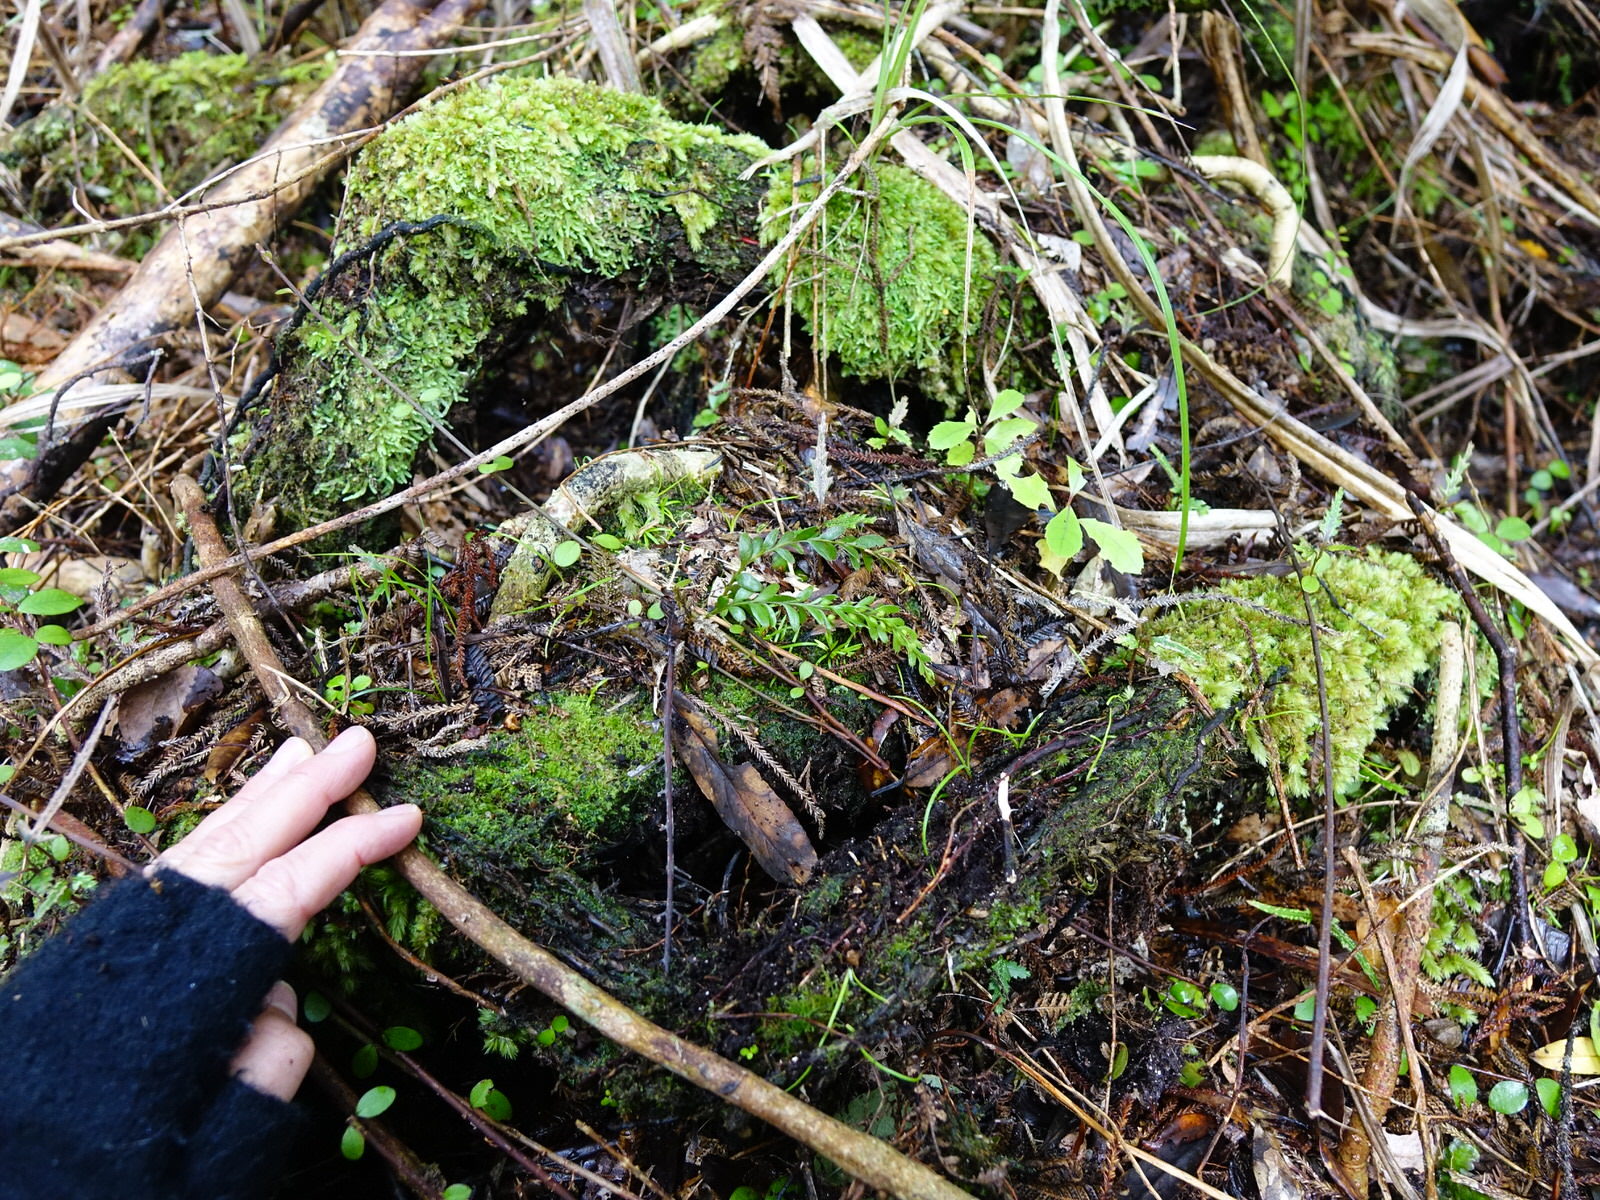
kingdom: Plantae
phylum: Tracheophyta
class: Polypodiopsida
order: Psilotales
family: Psilotaceae
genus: Tmesipteris
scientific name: Tmesipteris tannensis
